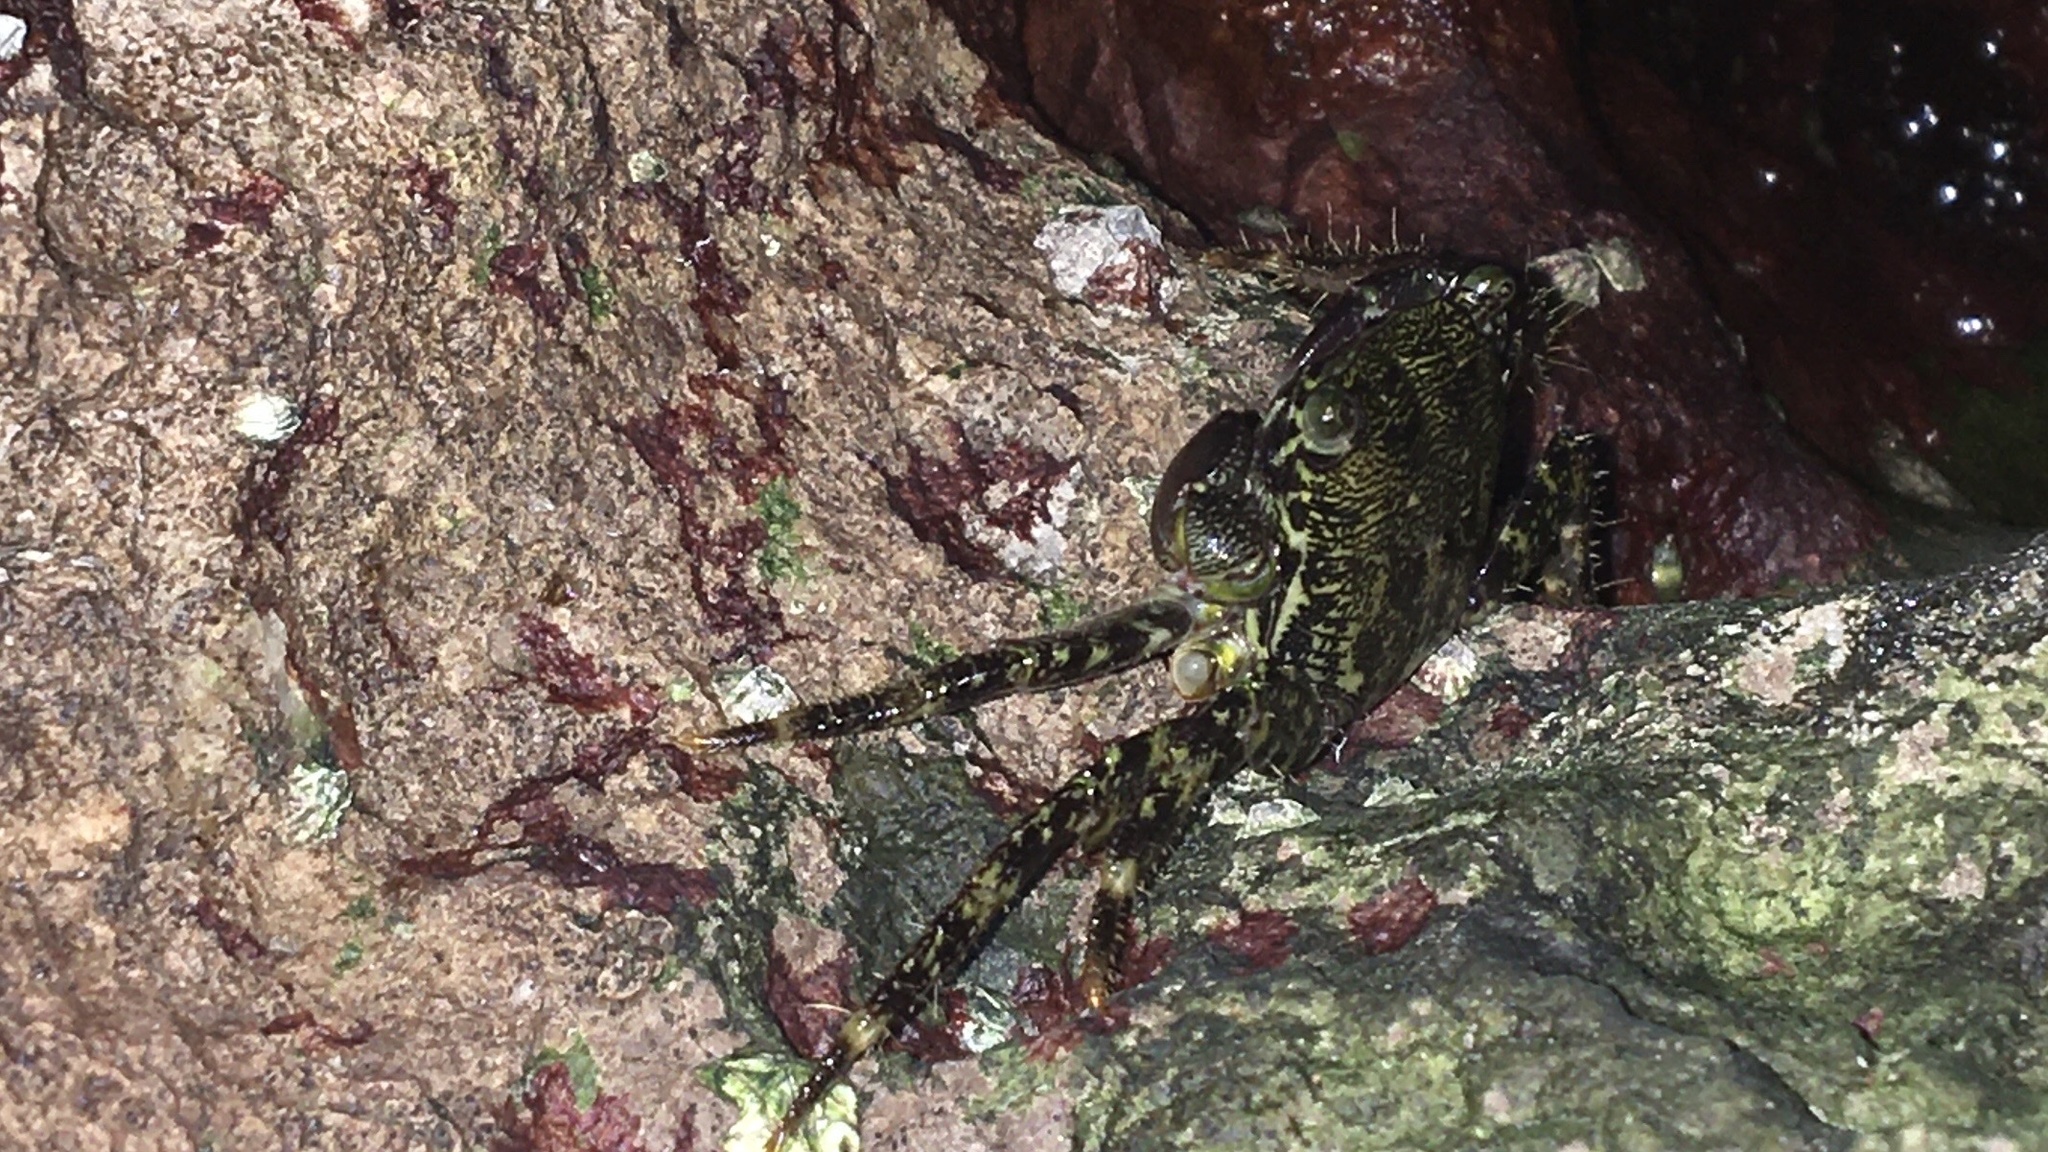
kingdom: Animalia
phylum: Arthropoda
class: Malacostraca
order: Decapoda
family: Grapsidae
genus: Pachygrapsus
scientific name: Pachygrapsus marmoratus
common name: Marbled rock crab
